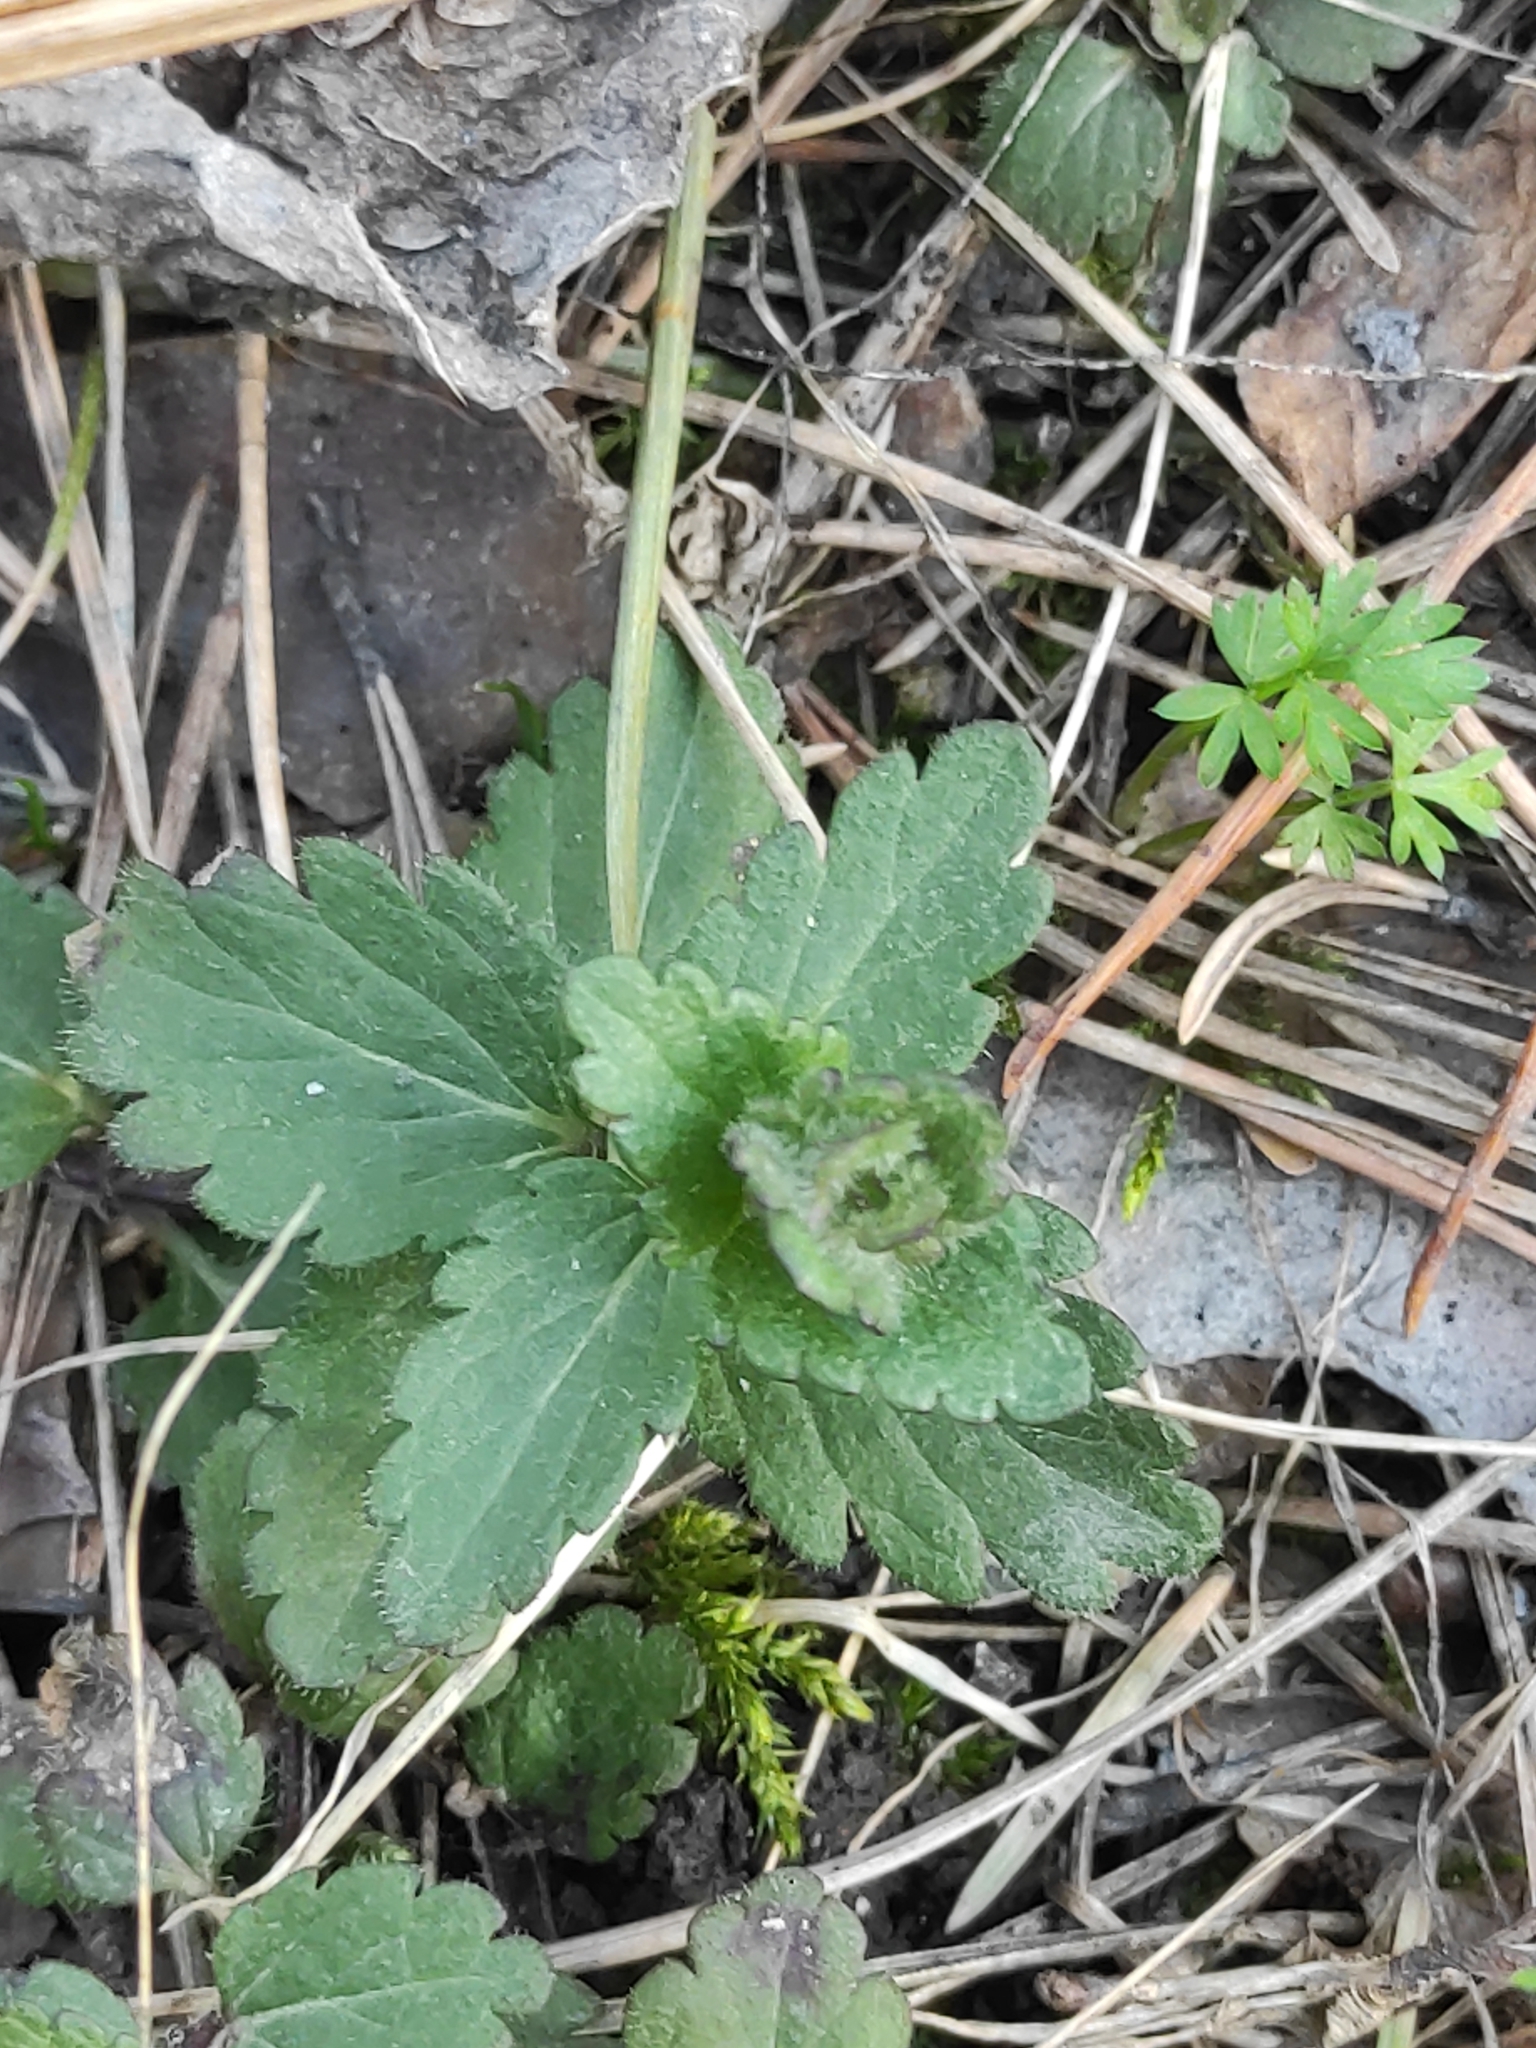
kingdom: Plantae
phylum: Tracheophyta
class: Magnoliopsida
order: Lamiales
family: Plantaginaceae
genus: Veronica
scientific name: Veronica chamaedrys
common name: Germander speedwell
